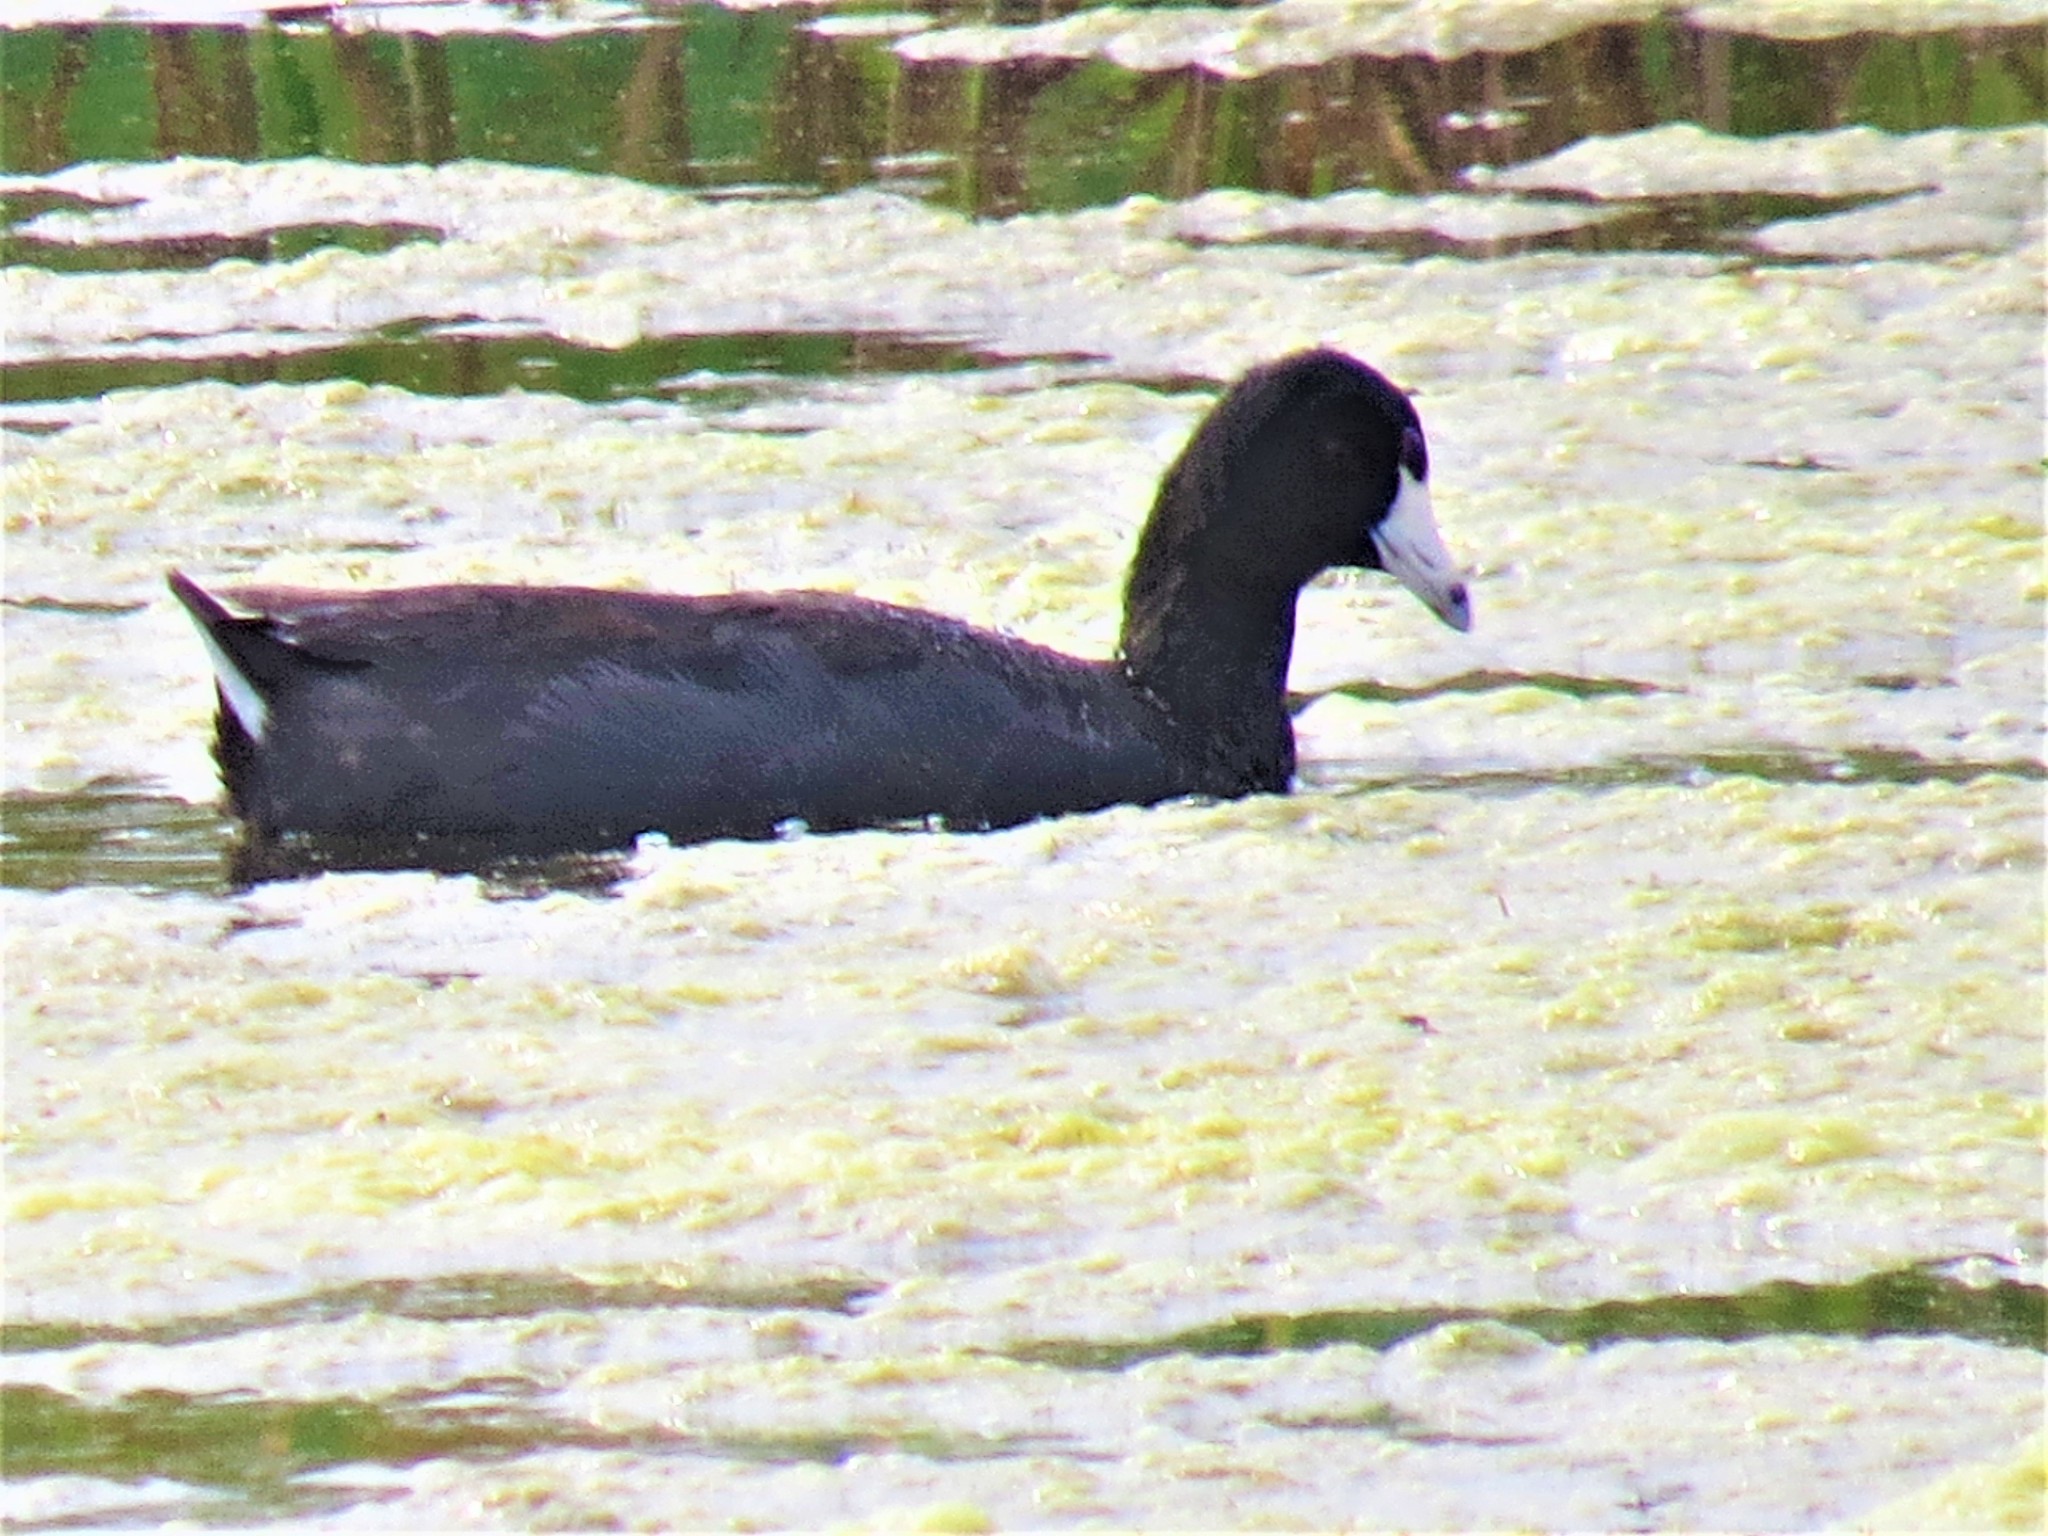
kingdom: Animalia
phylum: Chordata
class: Aves
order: Gruiformes
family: Rallidae
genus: Fulica
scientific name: Fulica americana
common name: American coot
